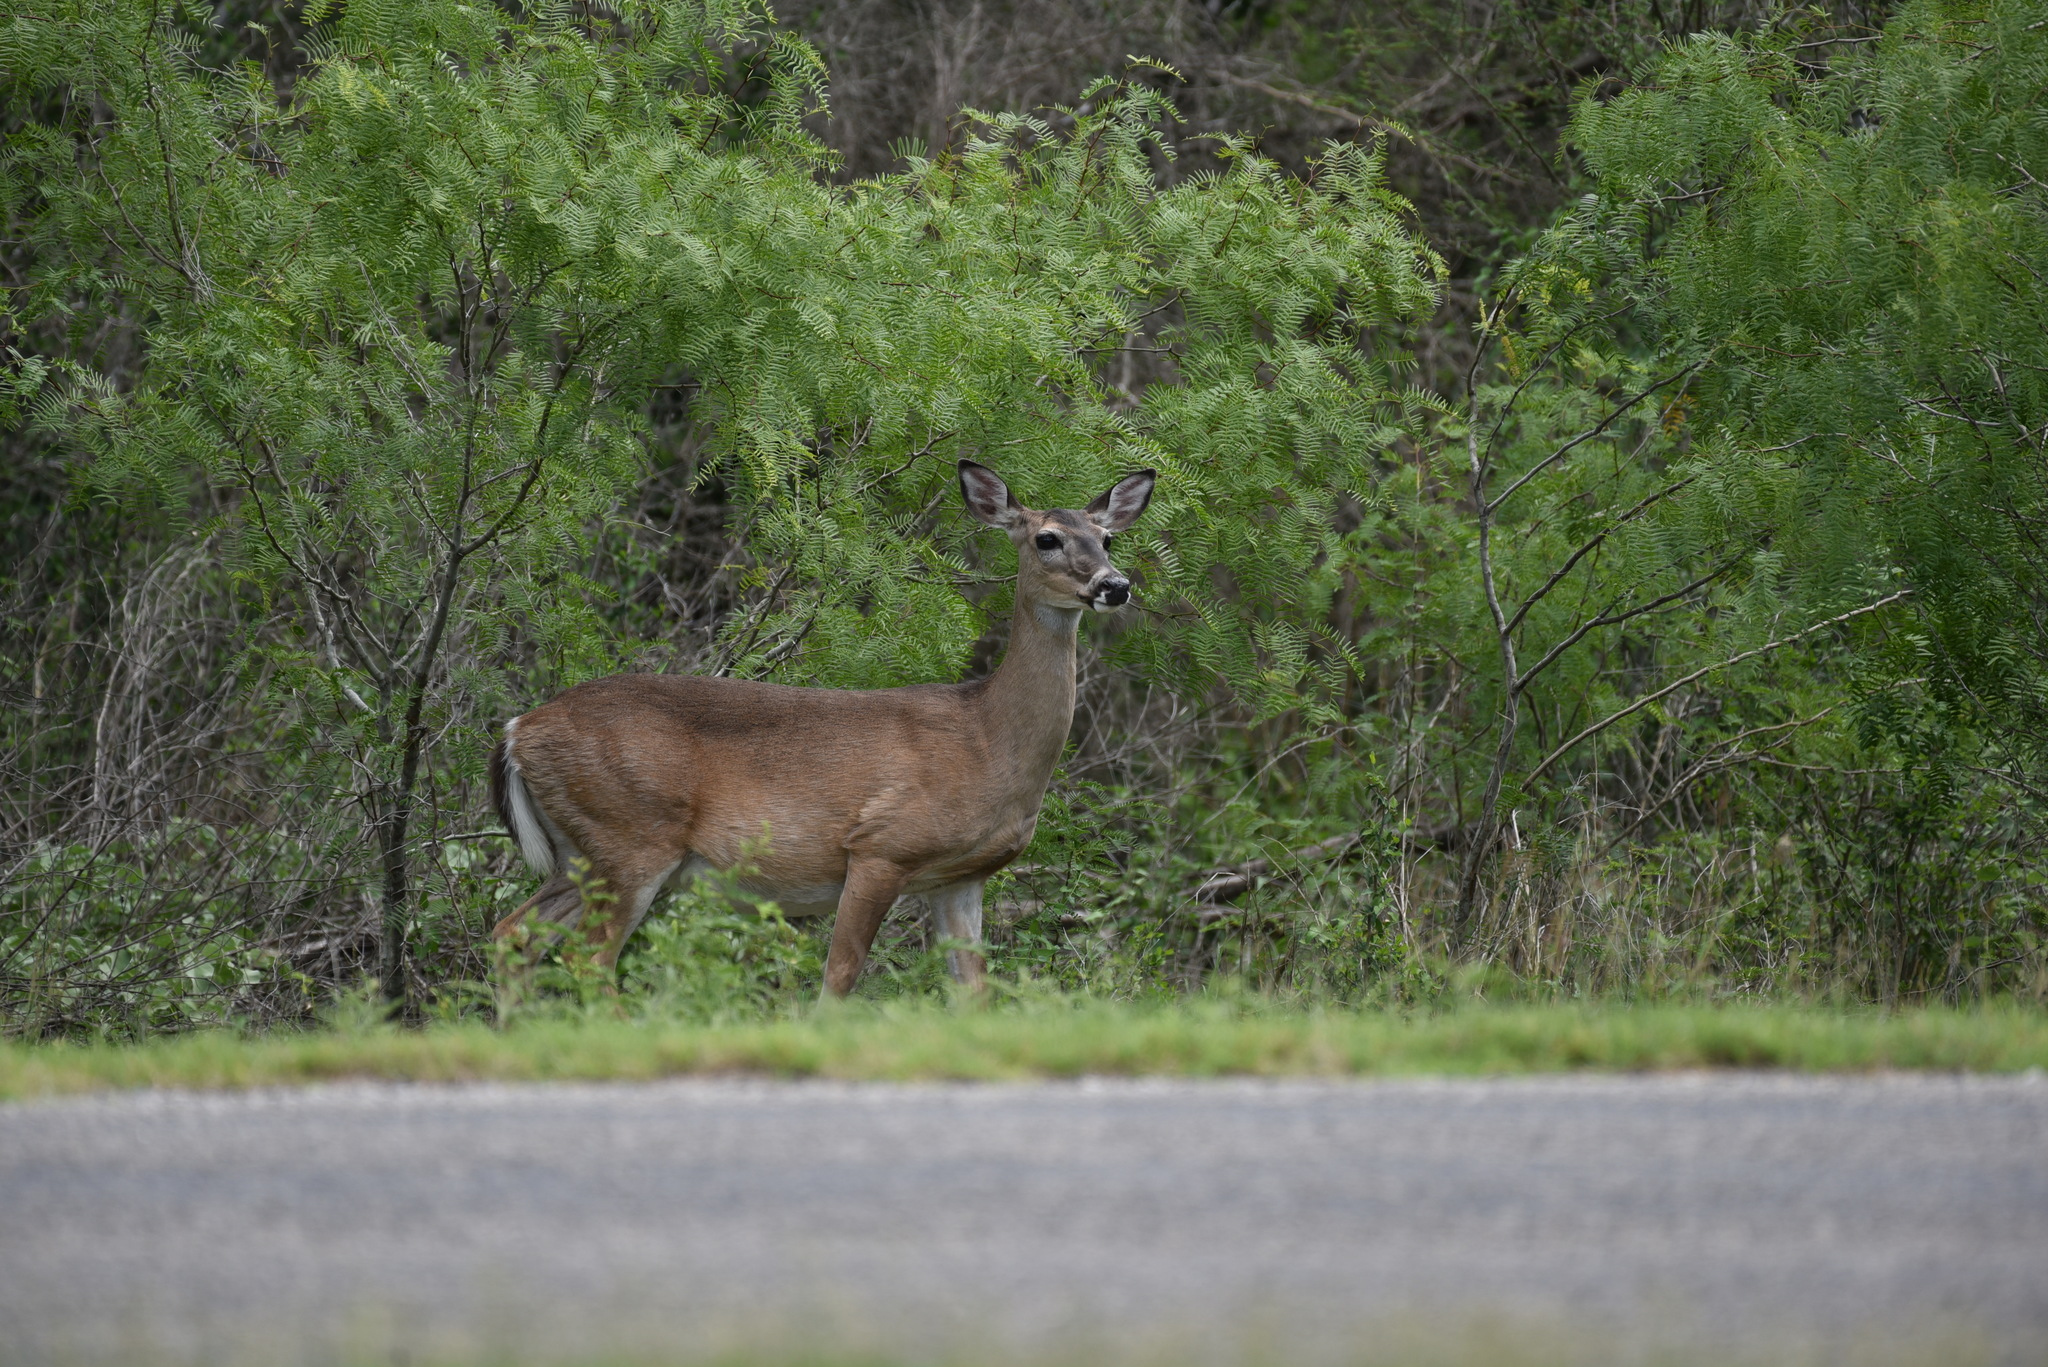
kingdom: Animalia
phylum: Chordata
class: Mammalia
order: Artiodactyla
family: Cervidae
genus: Odocoileus
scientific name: Odocoileus virginianus
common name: White-tailed deer
